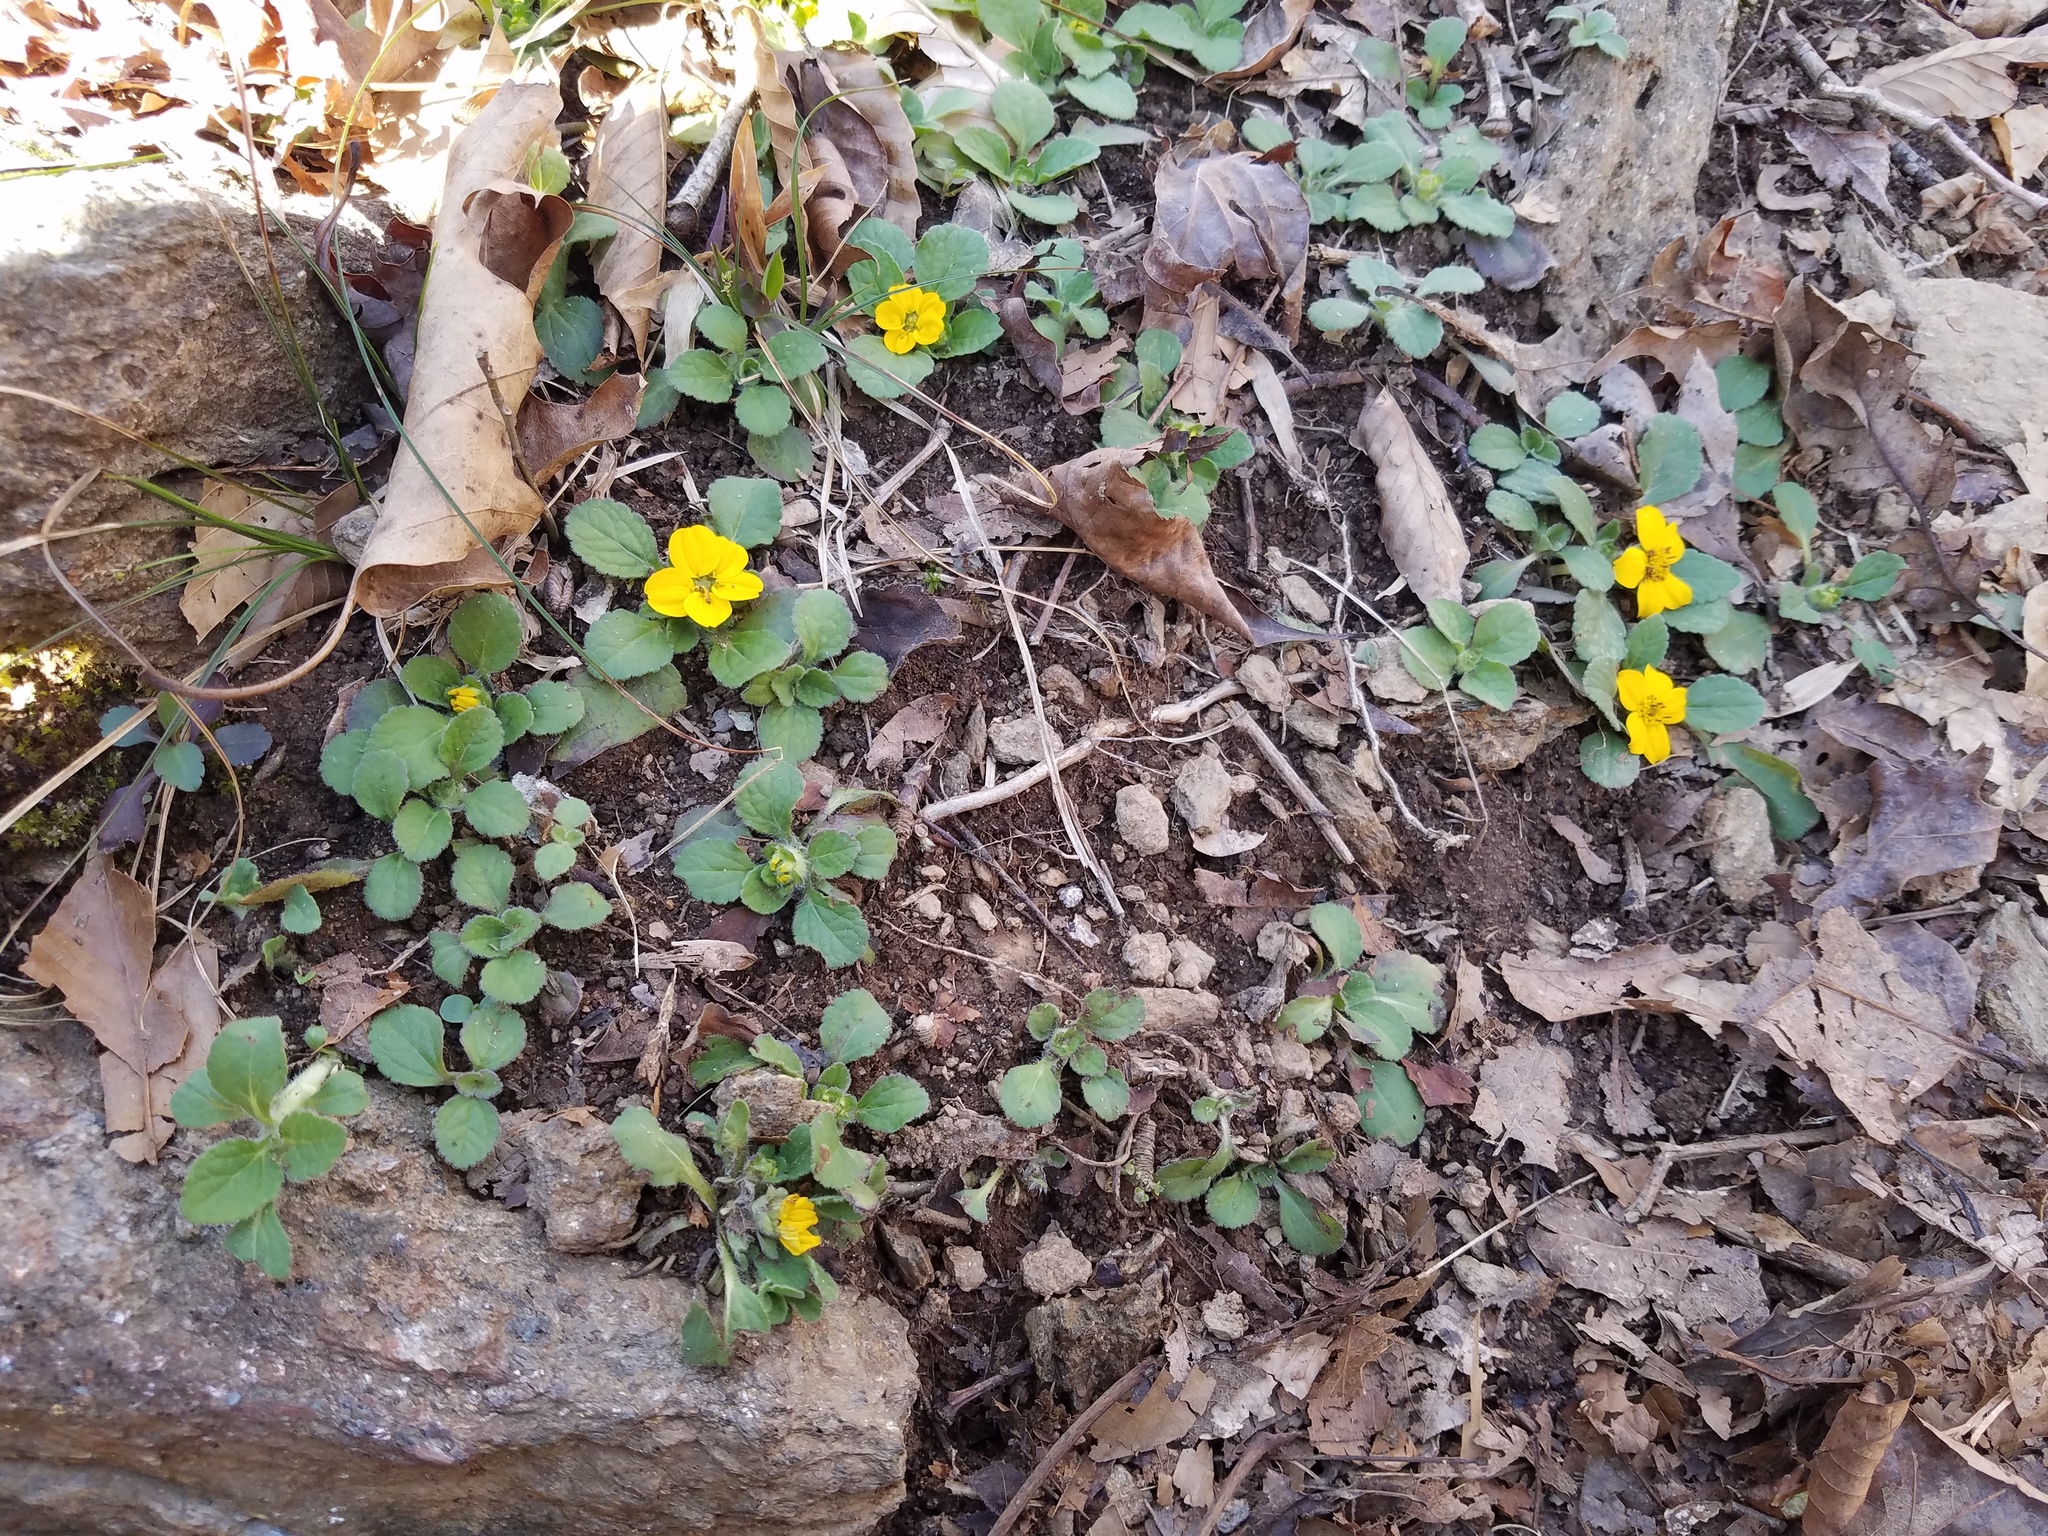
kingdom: Plantae
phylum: Tracheophyta
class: Magnoliopsida
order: Asterales
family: Asteraceae
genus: Chrysogonum
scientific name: Chrysogonum virginianum
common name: Golden-knee
